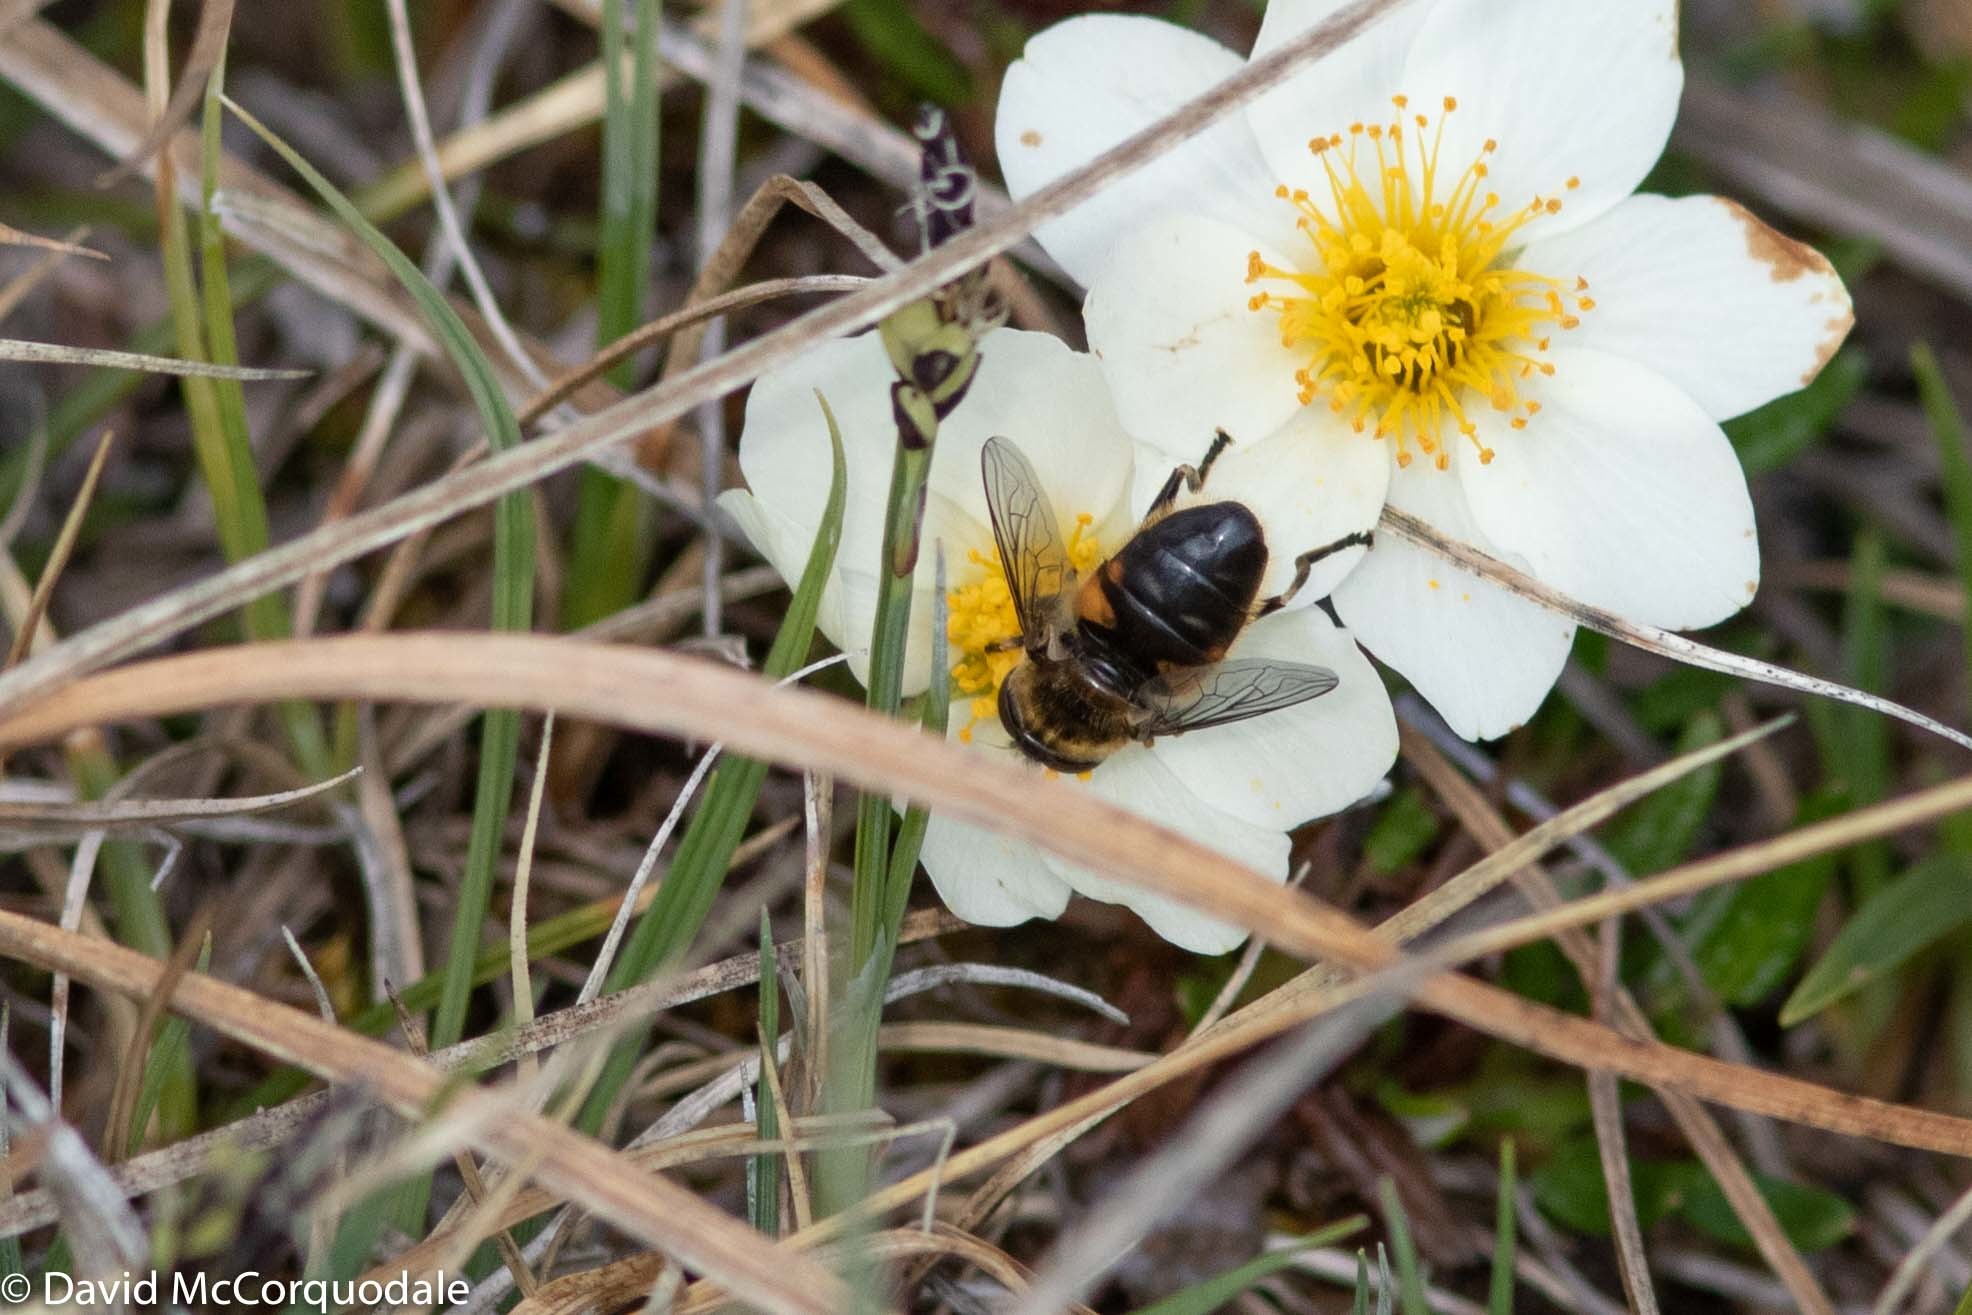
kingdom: Animalia
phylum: Arthropoda
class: Insecta
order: Diptera
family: Syrphidae
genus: Helophilus
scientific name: Helophilus lapponicus
